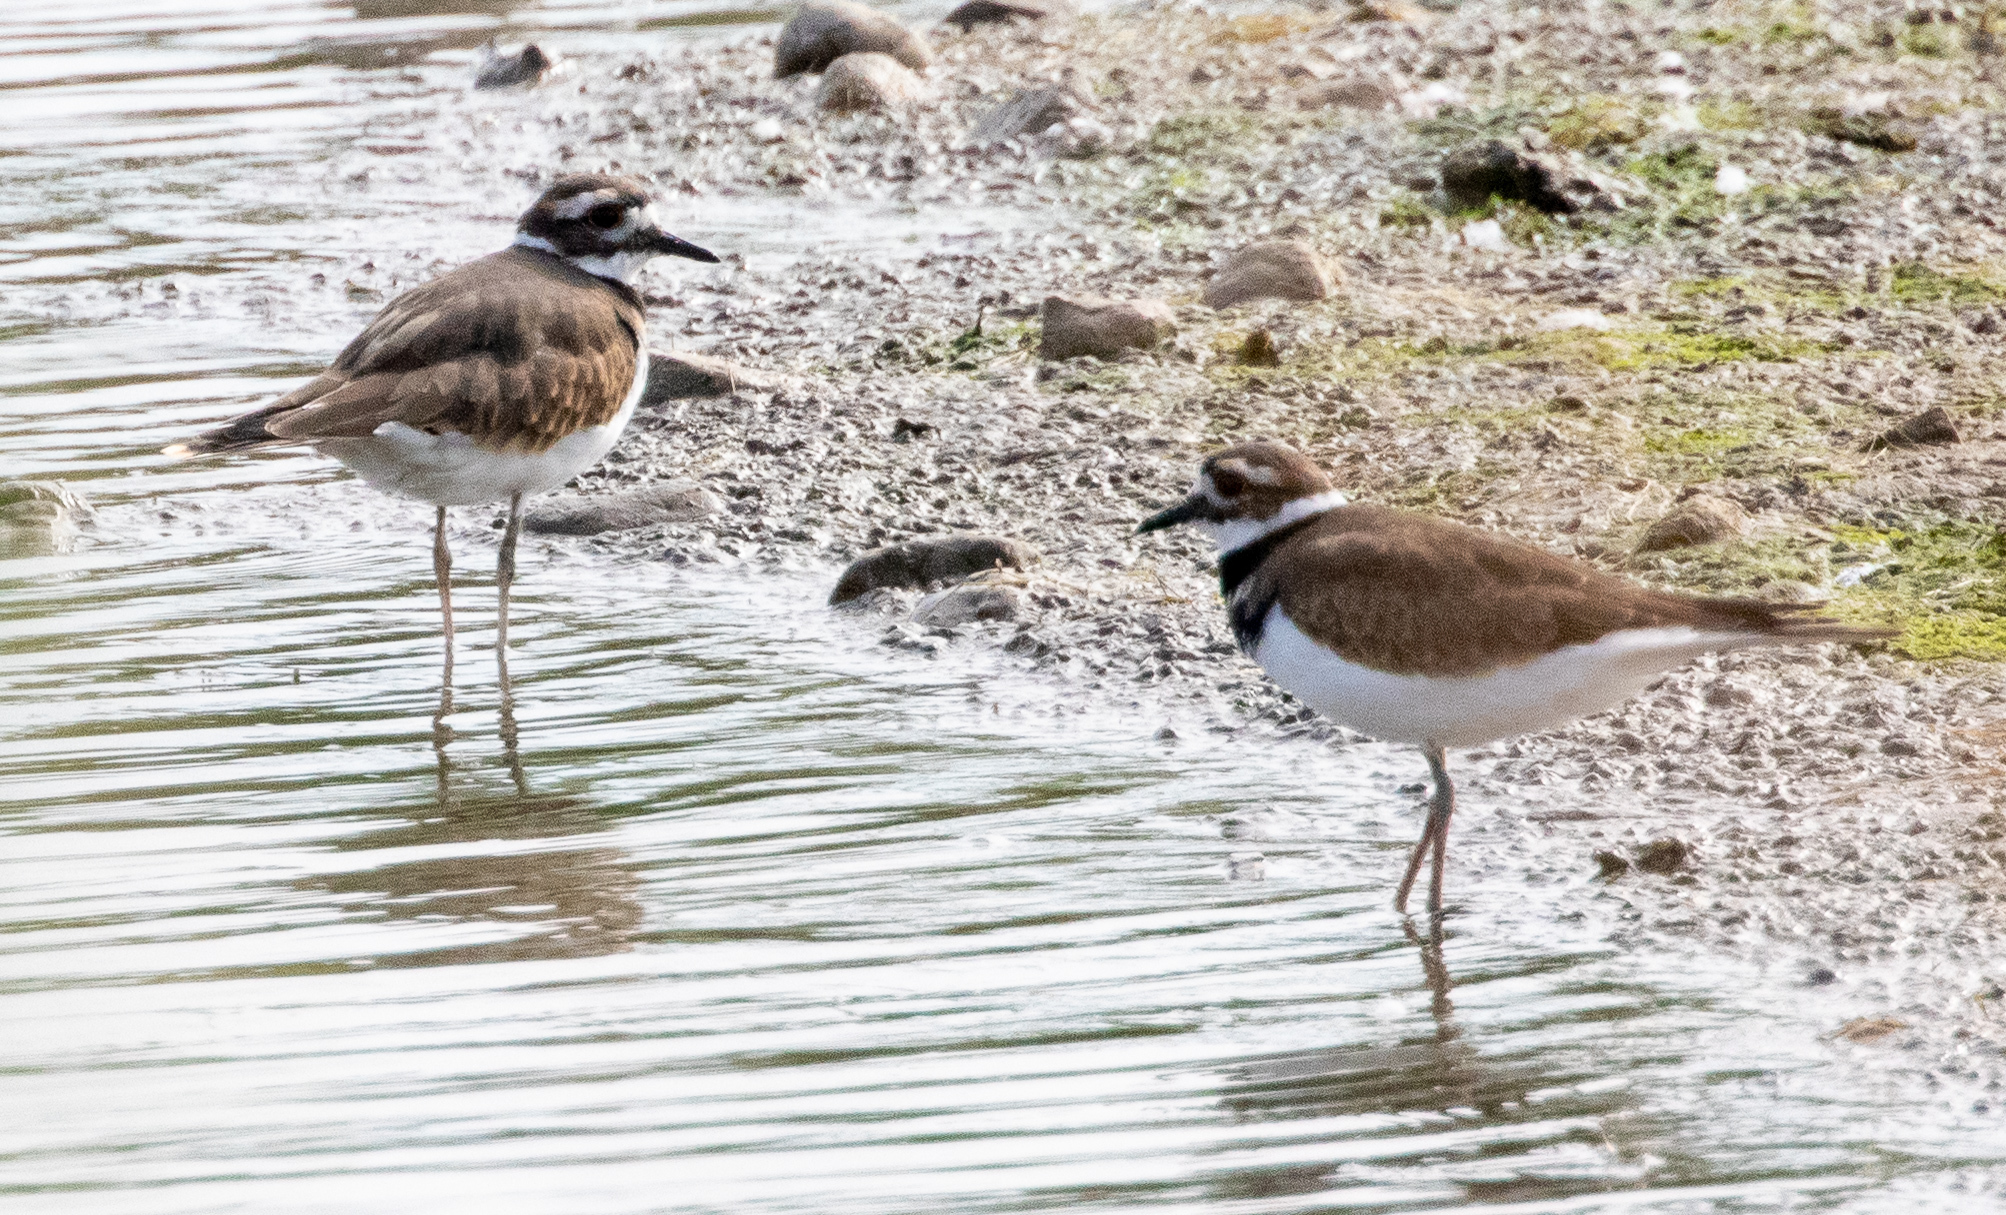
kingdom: Animalia
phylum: Chordata
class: Aves
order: Charadriiformes
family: Charadriidae
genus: Charadrius
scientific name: Charadrius vociferus
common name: Killdeer
